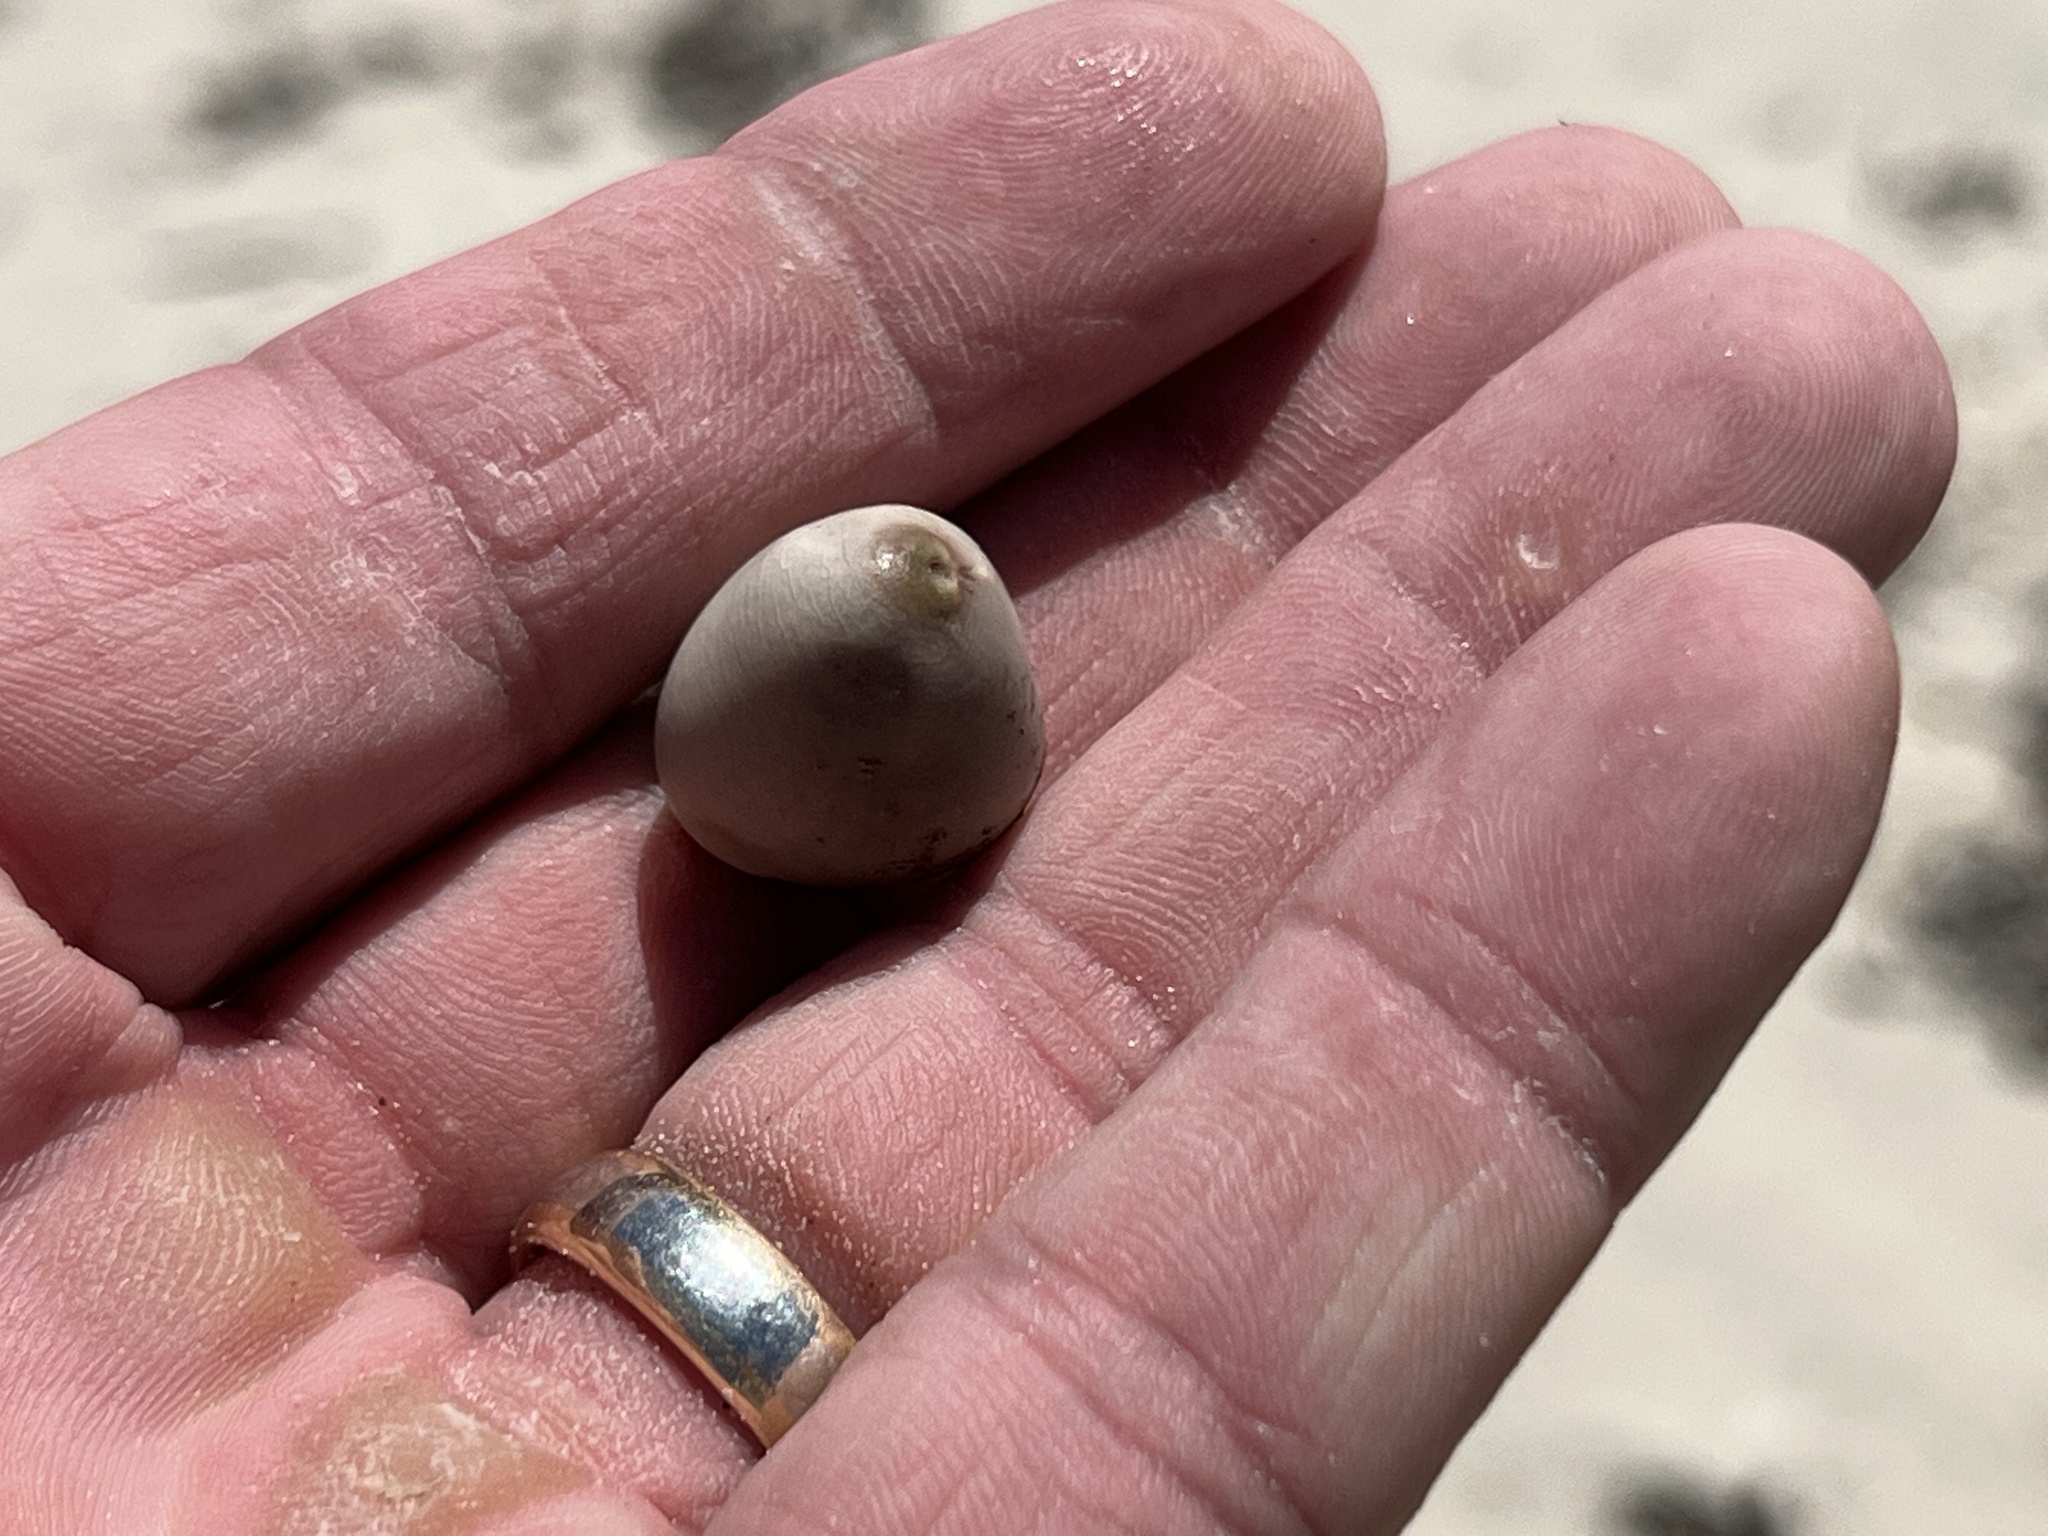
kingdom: Plantae
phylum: Tracheophyta
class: Magnoliopsida
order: Fabales
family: Fabaceae
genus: Guilandina
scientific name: Guilandina bonduc
